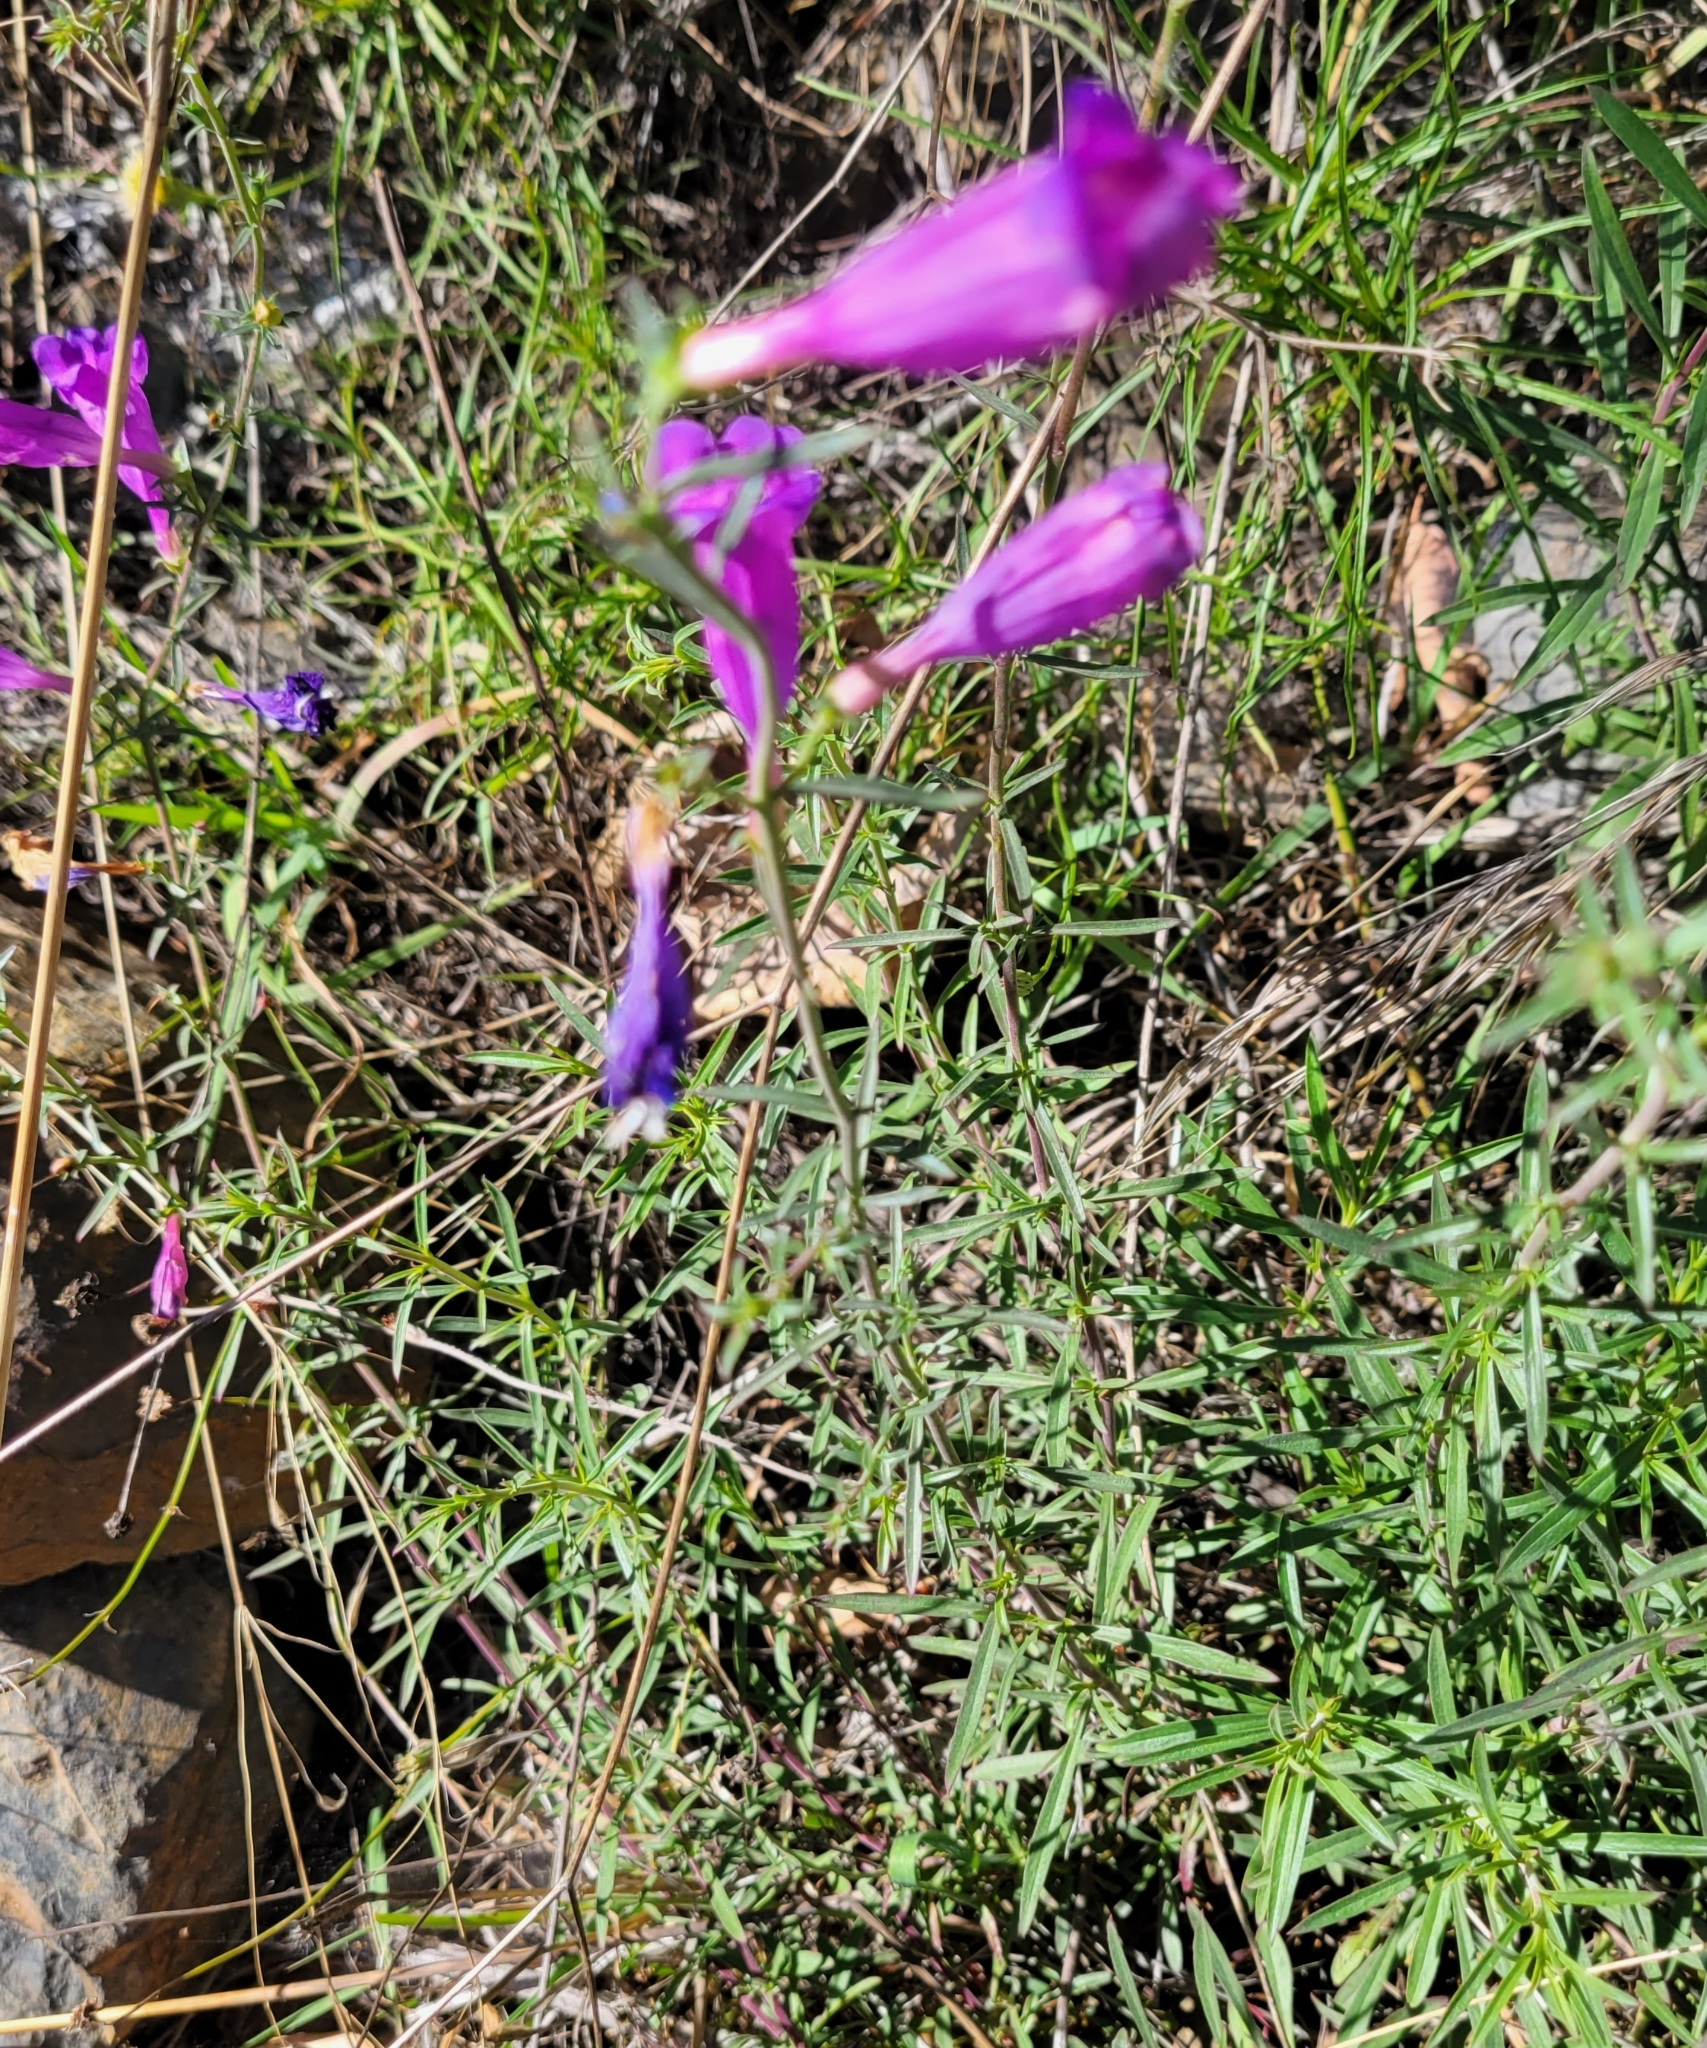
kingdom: Plantae
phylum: Tracheophyta
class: Magnoliopsida
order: Lamiales
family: Plantaginaceae
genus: Penstemon
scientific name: Penstemon heterophyllus
